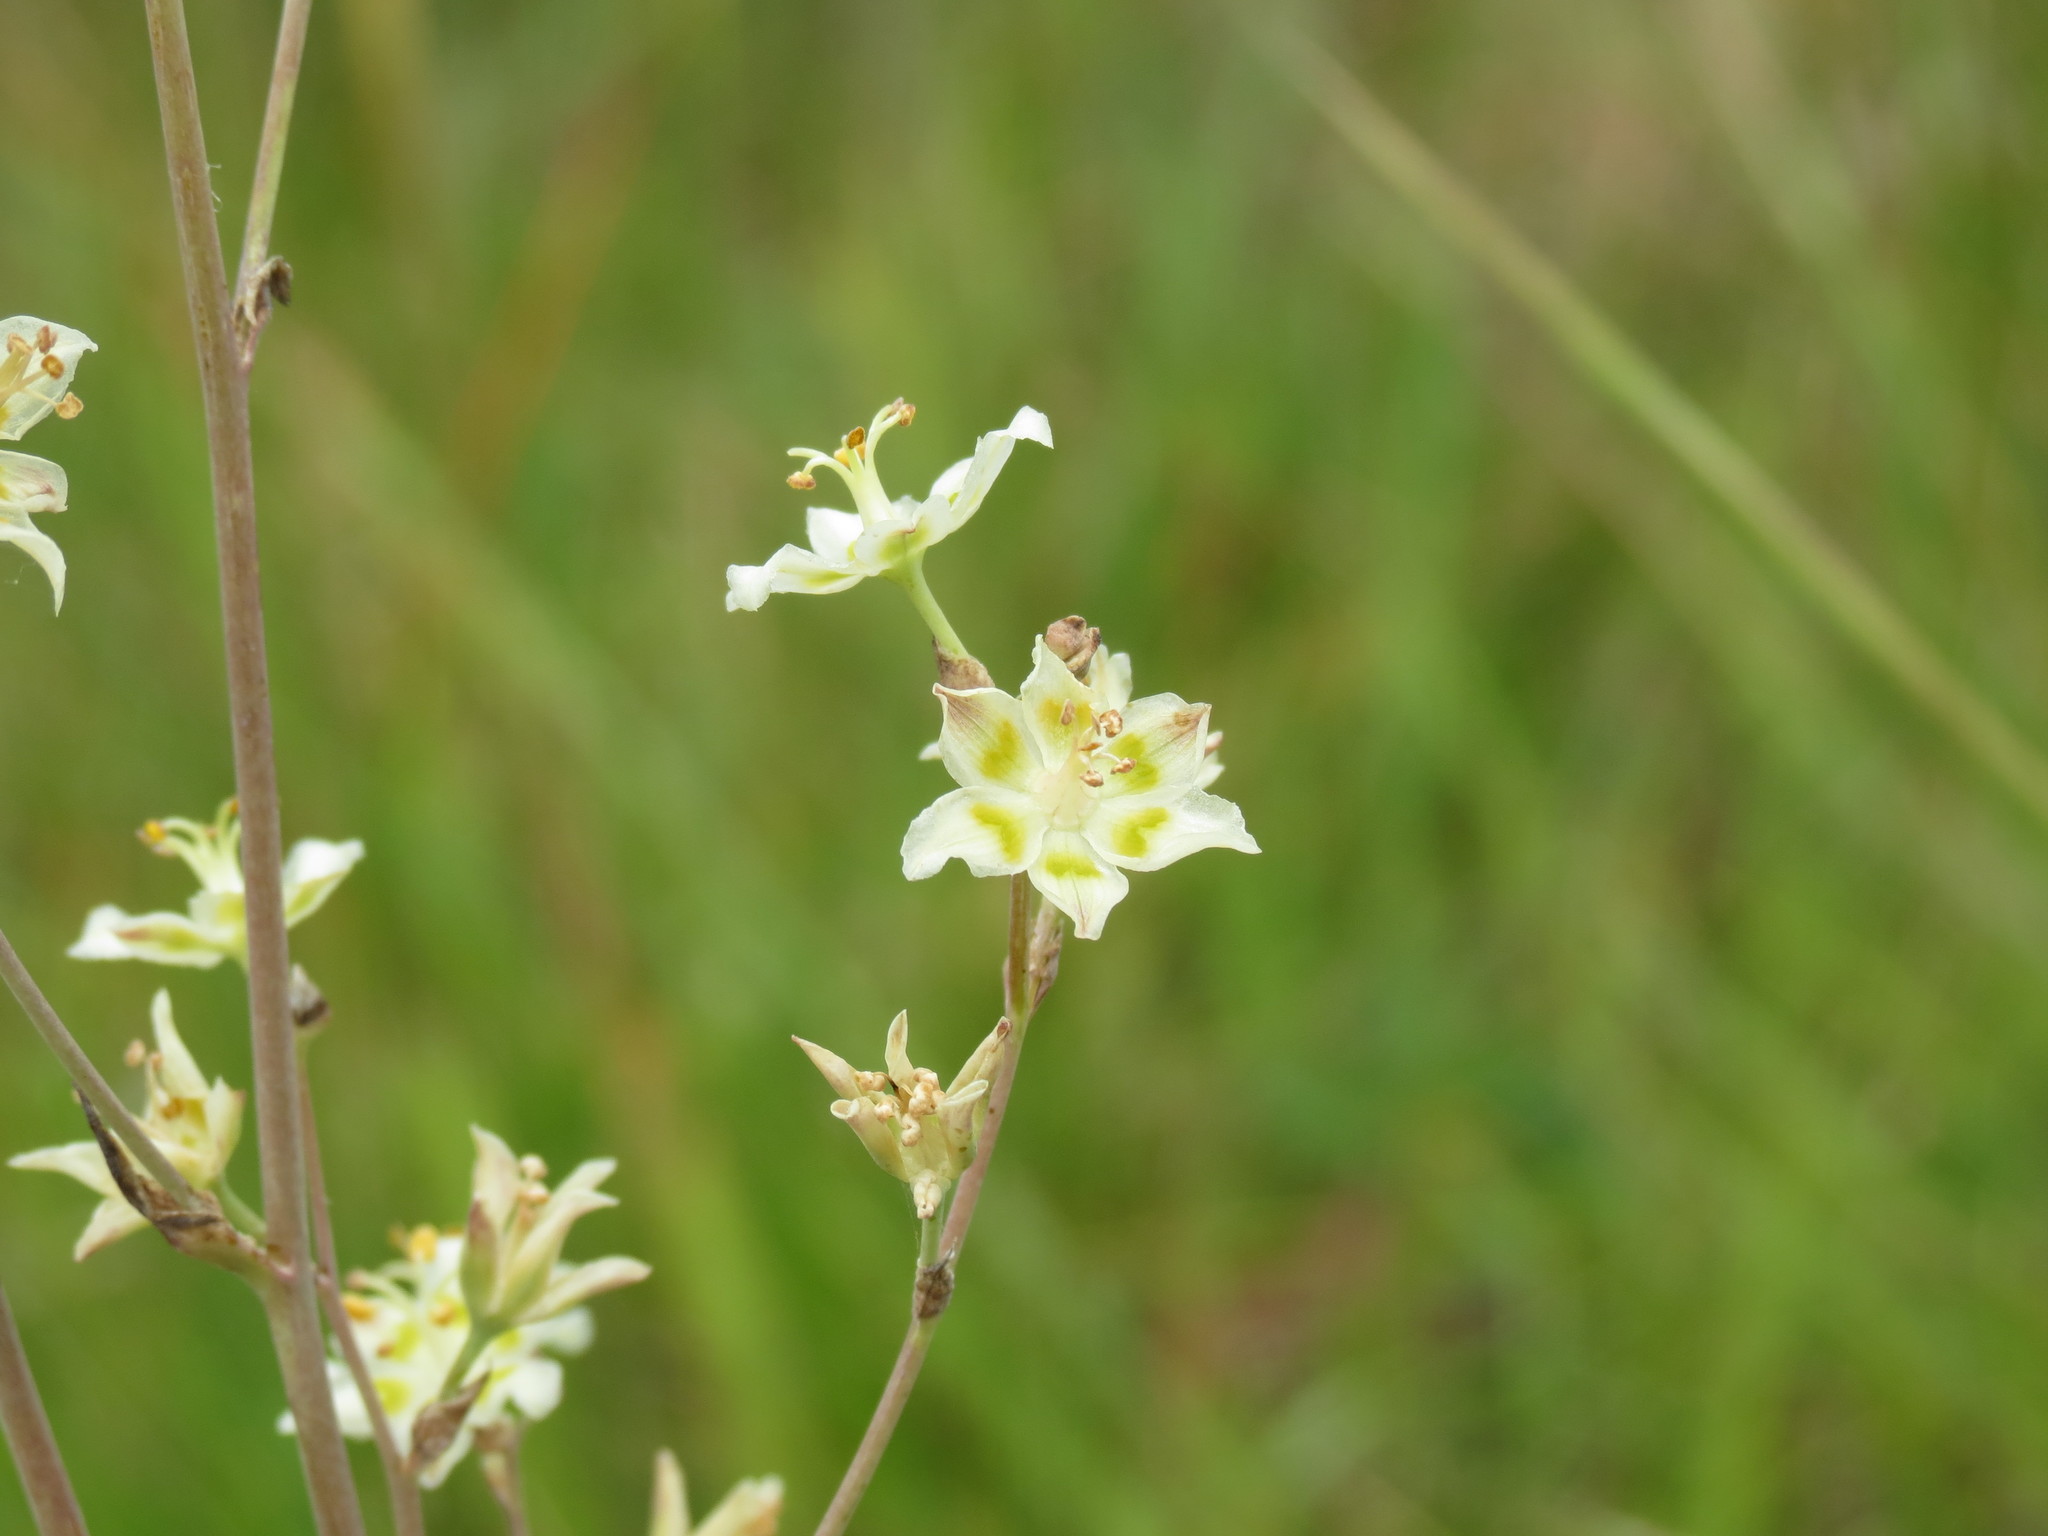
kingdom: Plantae
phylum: Tracheophyta
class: Liliopsida
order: Liliales
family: Melanthiaceae
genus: Anticlea
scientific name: Anticlea elegans
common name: Mountain death camas
